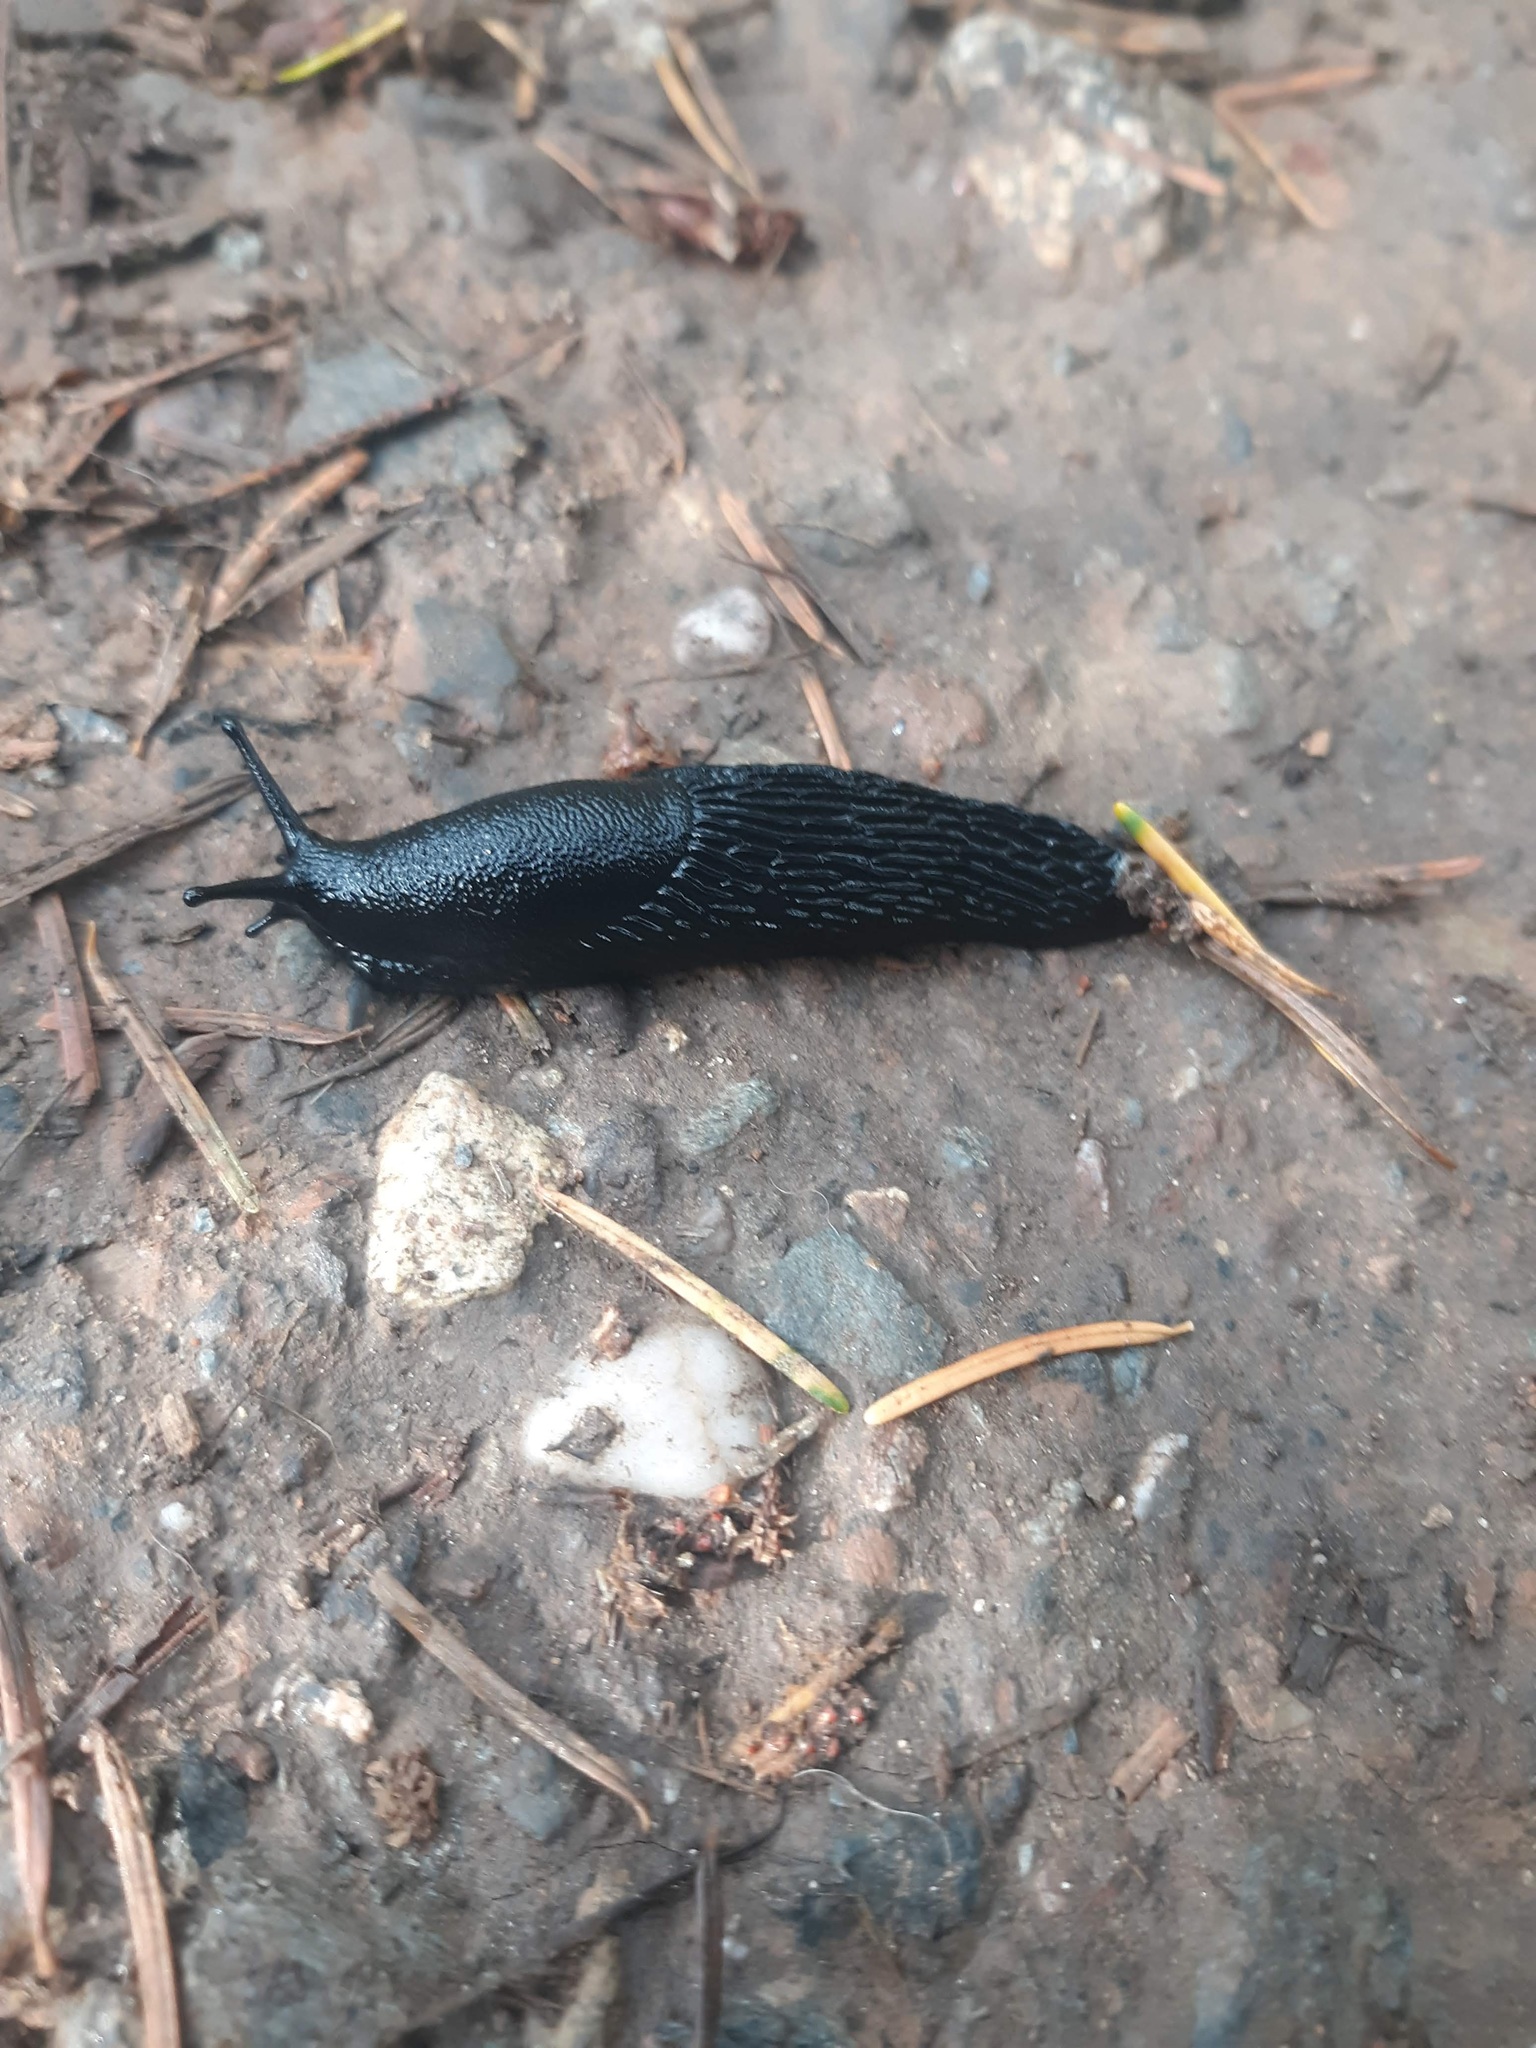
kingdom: Animalia
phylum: Mollusca
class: Gastropoda
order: Stylommatophora
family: Arionidae
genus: Arion
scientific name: Arion
